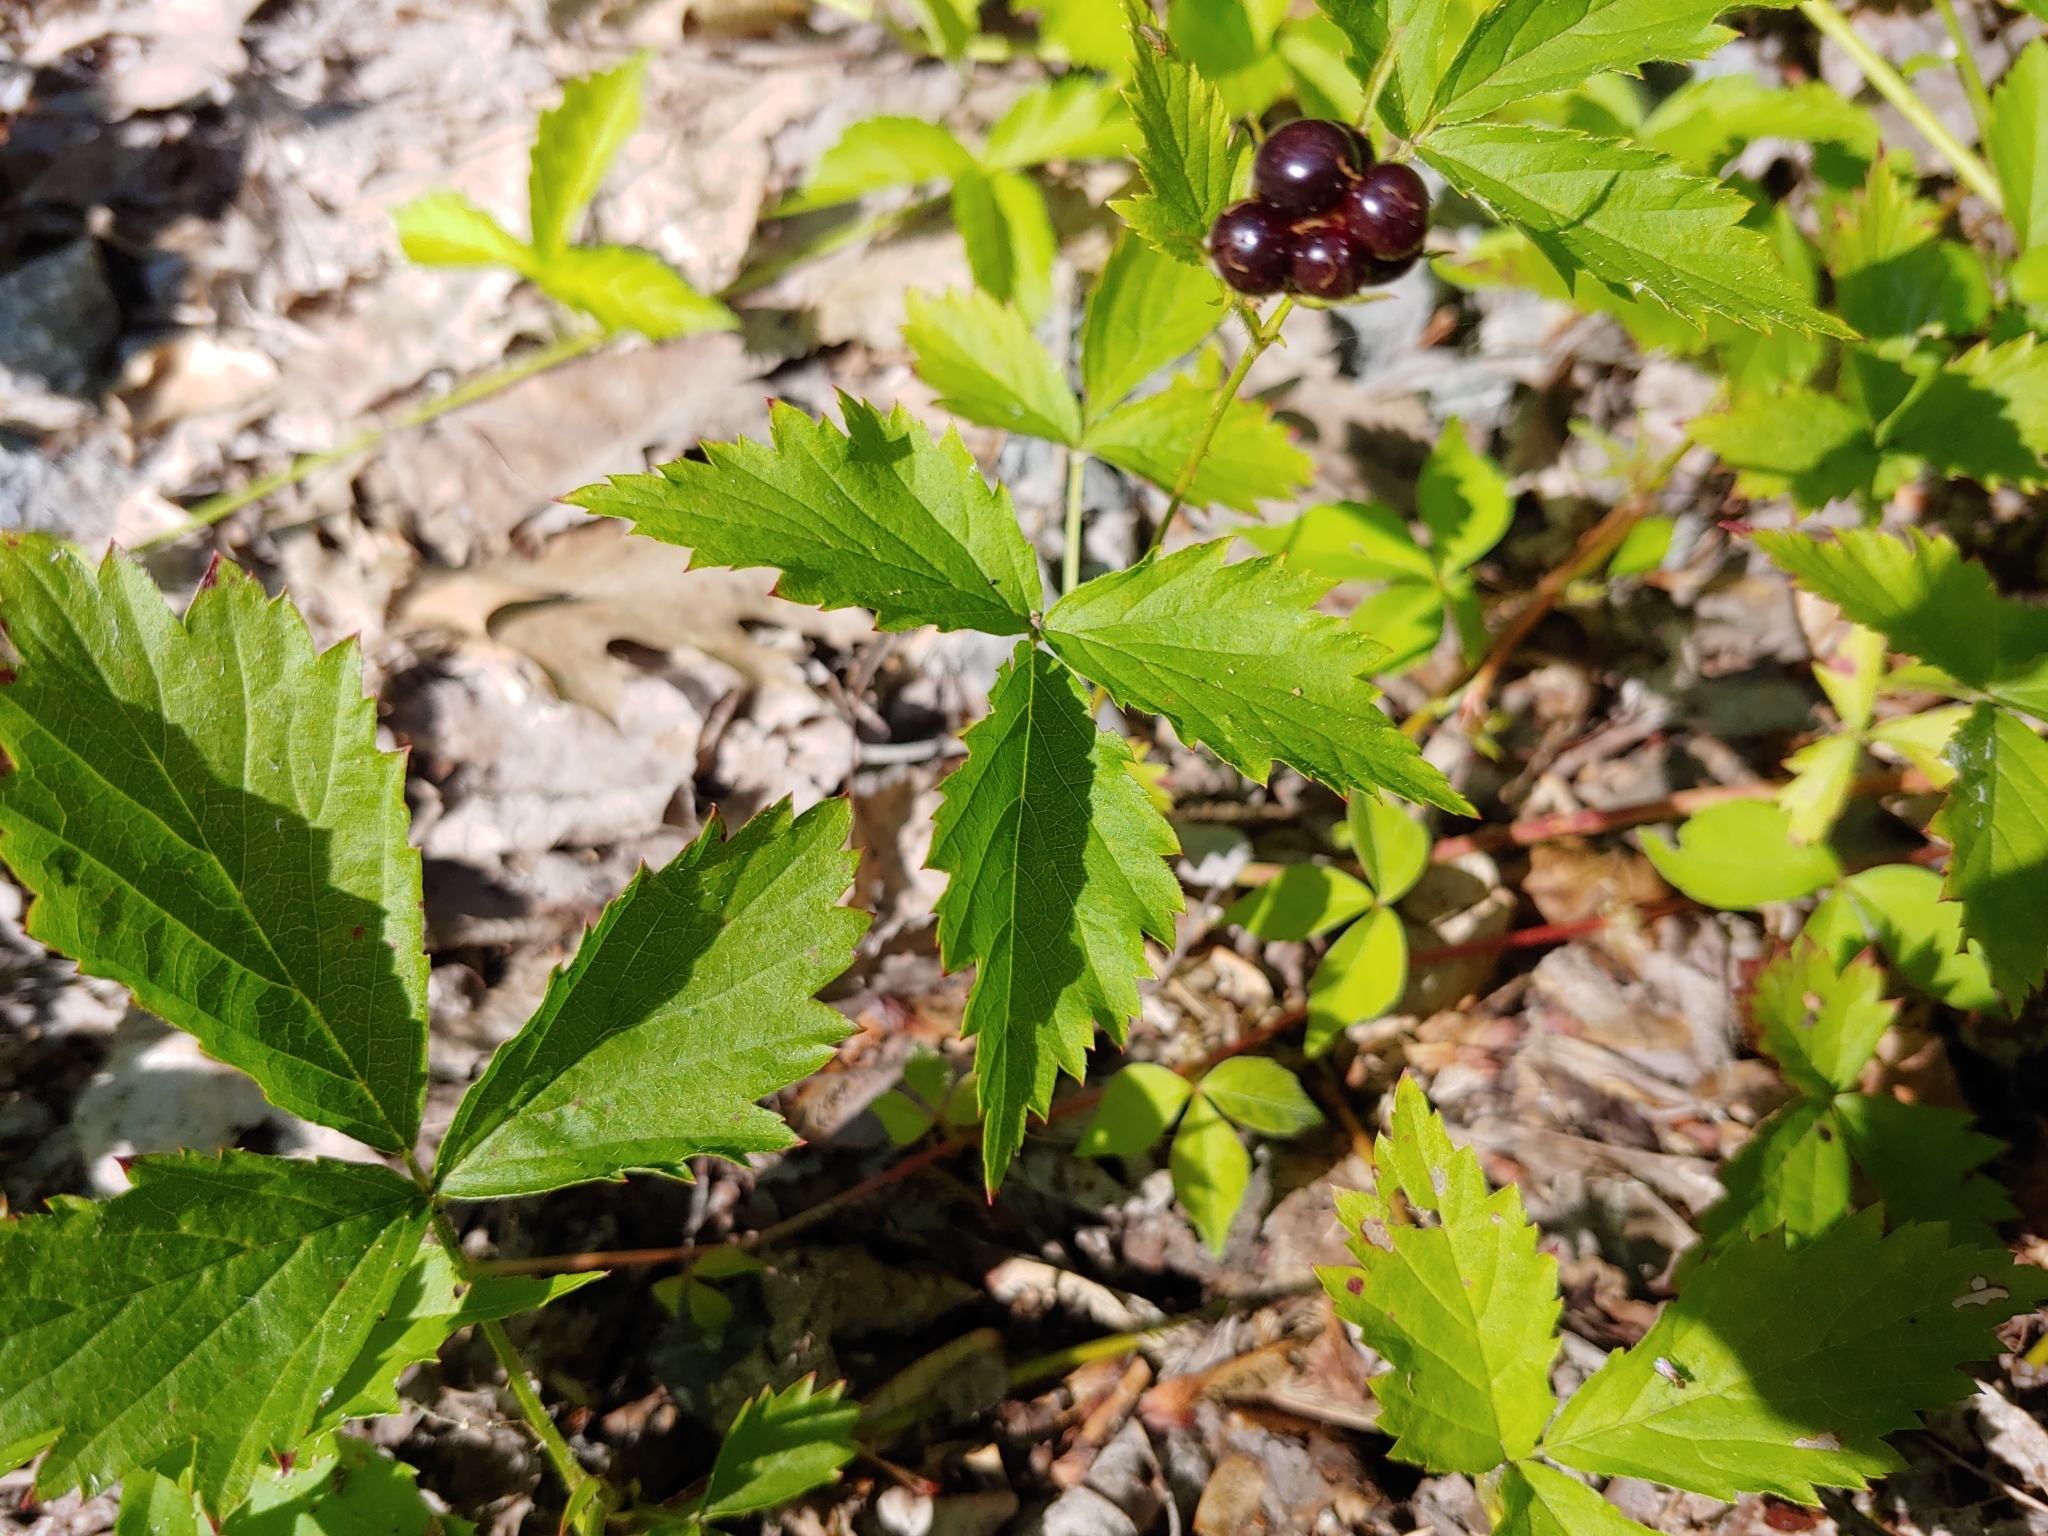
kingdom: Plantae
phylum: Tracheophyta
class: Magnoliopsida
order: Rosales
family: Rosaceae
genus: Rubus
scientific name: Rubus flagellaris
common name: American dewberry
